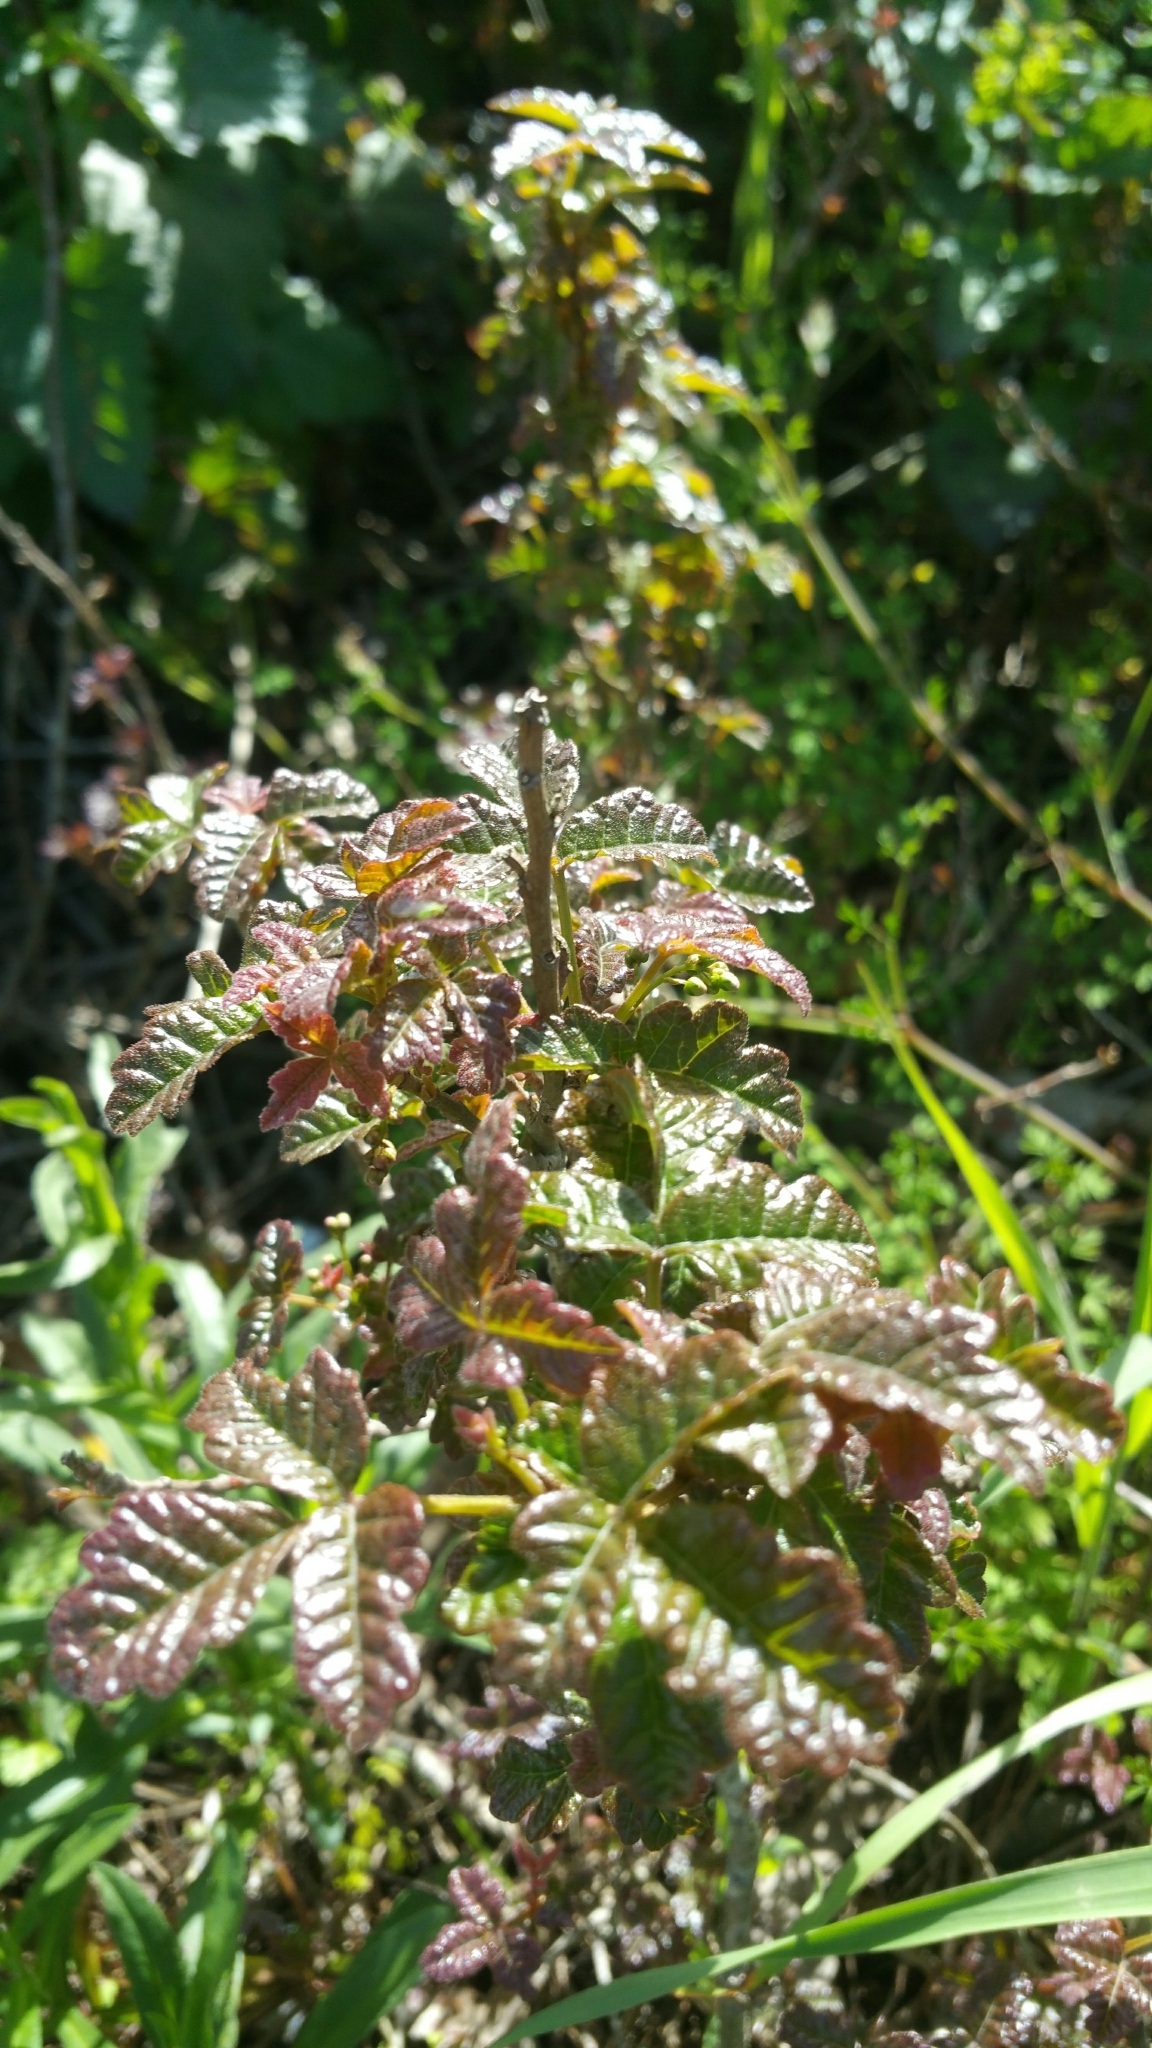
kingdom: Plantae
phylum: Tracheophyta
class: Magnoliopsida
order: Sapindales
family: Anacardiaceae
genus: Toxicodendron
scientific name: Toxicodendron diversilobum
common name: Pacific poison-oak
